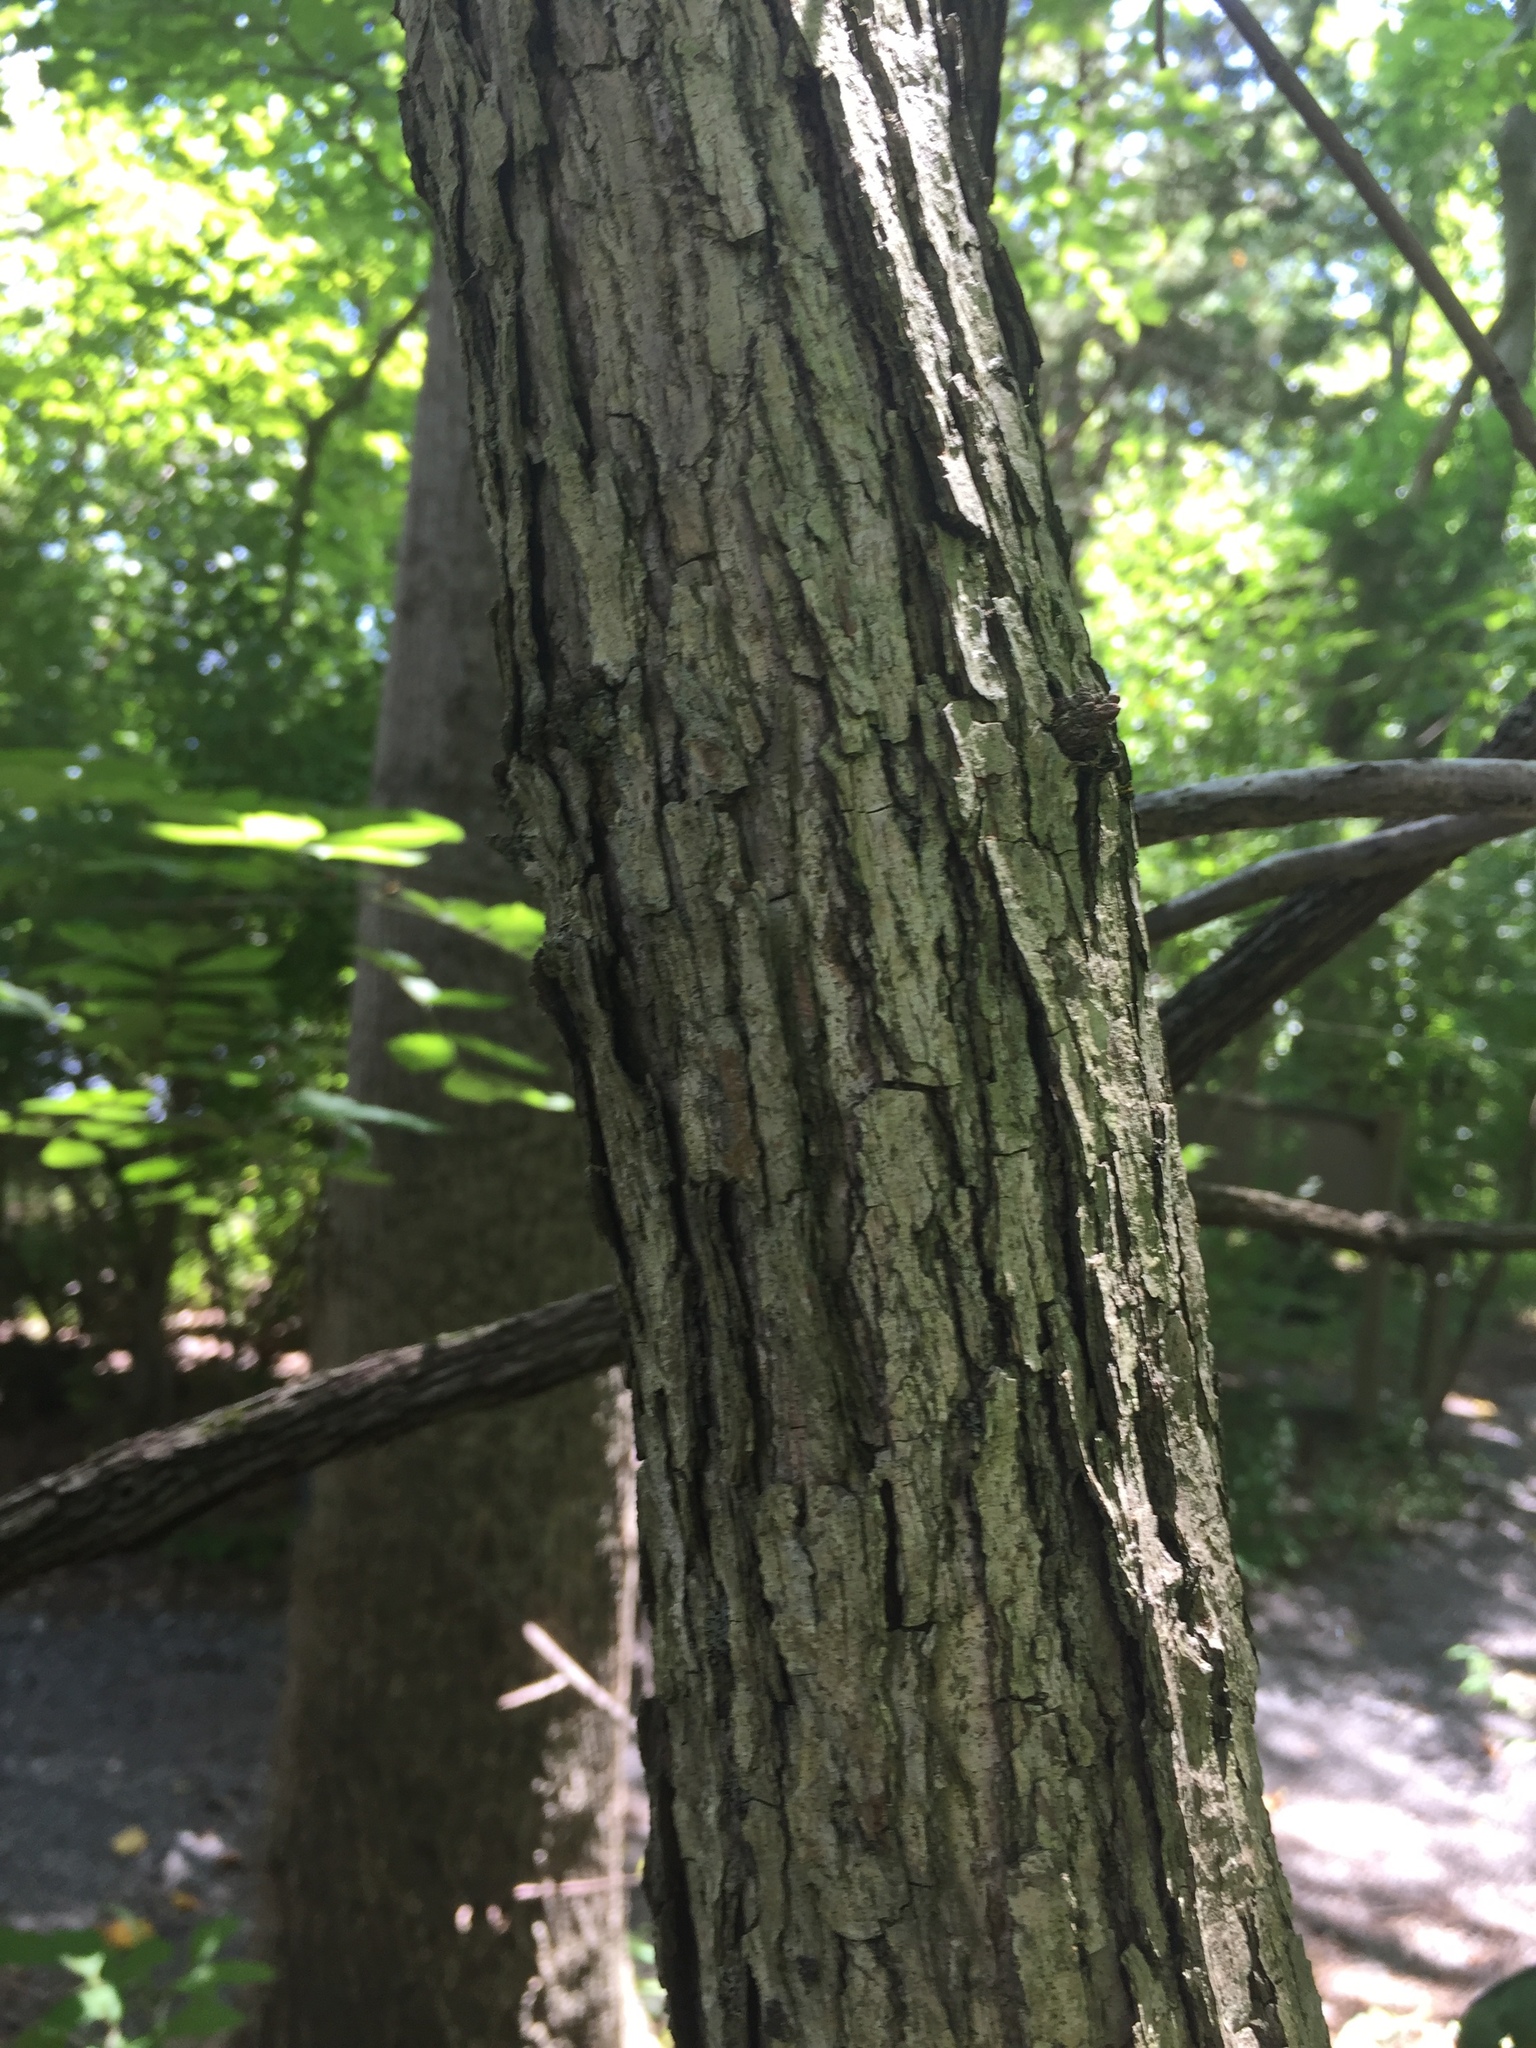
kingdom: Plantae
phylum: Tracheophyta
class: Magnoliopsida
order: Fagales
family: Fagaceae
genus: Quercus
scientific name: Quercus montana
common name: Chestnut oak
